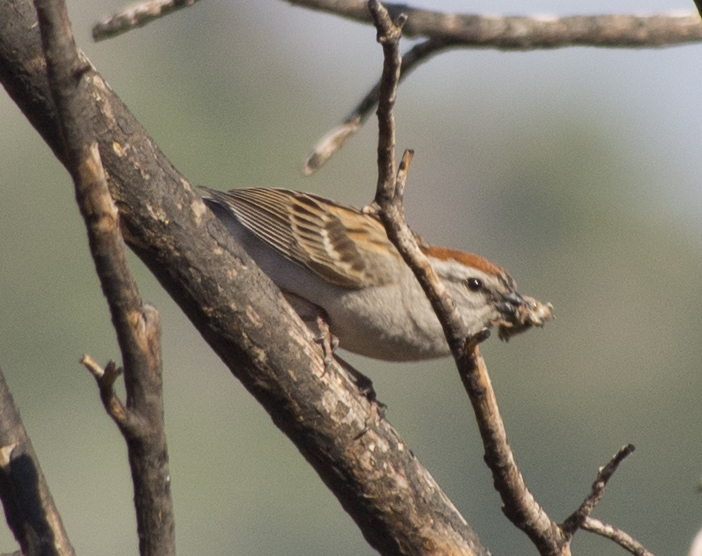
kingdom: Animalia
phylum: Chordata
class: Aves
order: Passeriformes
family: Passerellidae
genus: Spizella
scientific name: Spizella passerina
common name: Chipping sparrow
